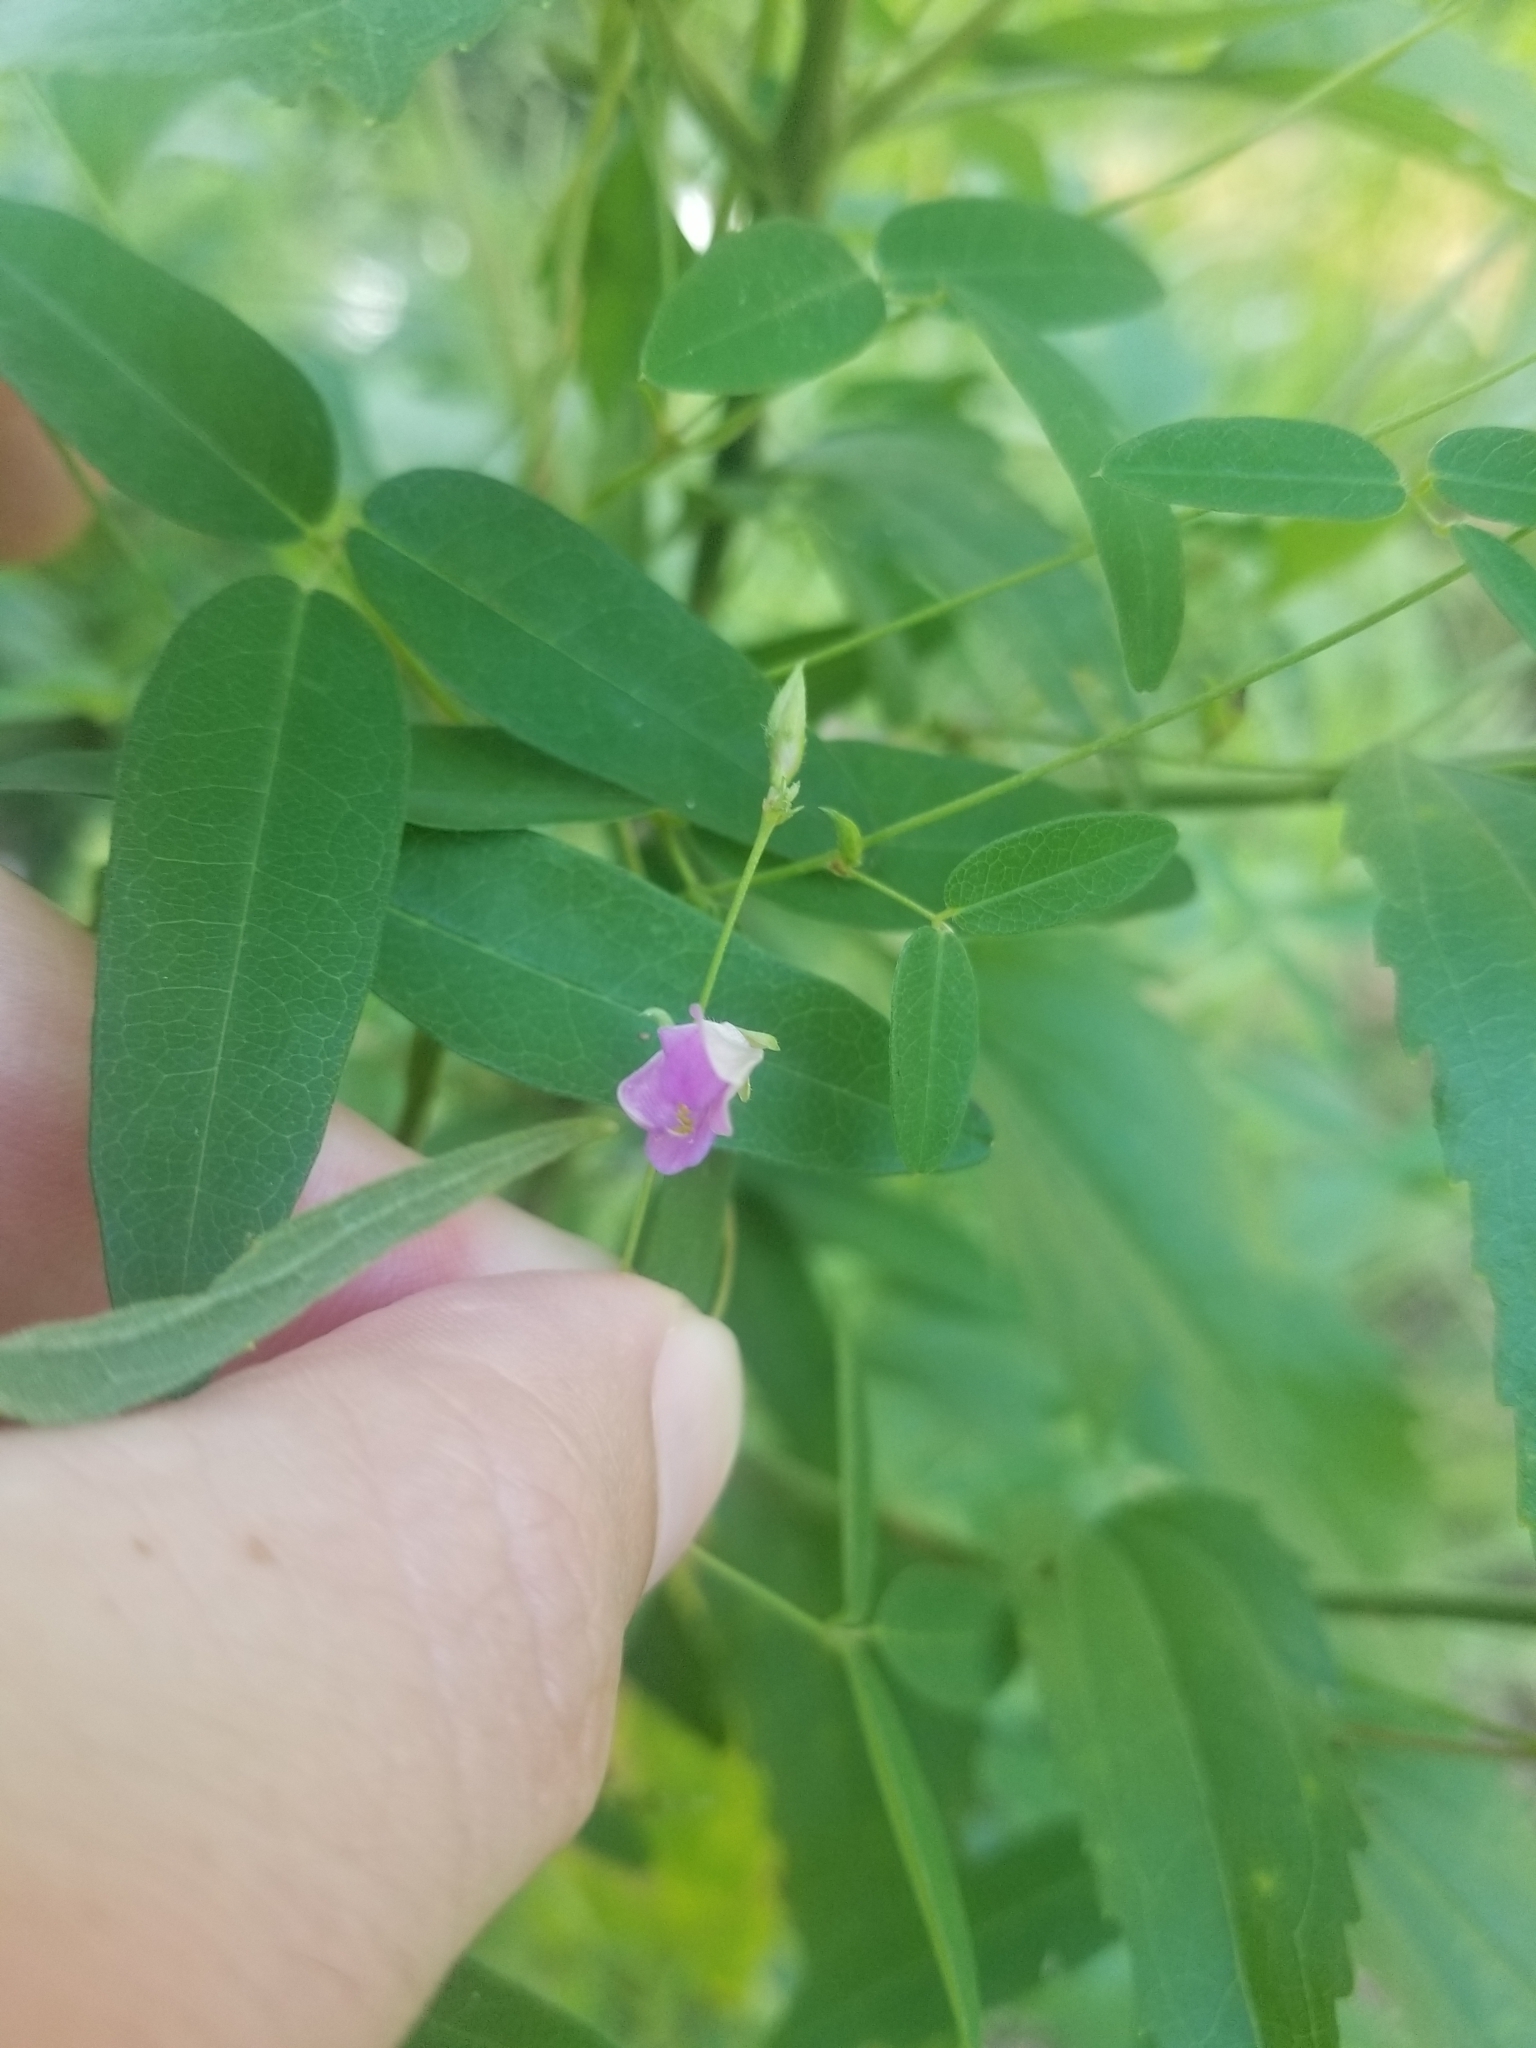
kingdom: Plantae
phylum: Tracheophyta
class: Magnoliopsida
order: Fabales
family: Fabaceae
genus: Galactia
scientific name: Galactia regularis
